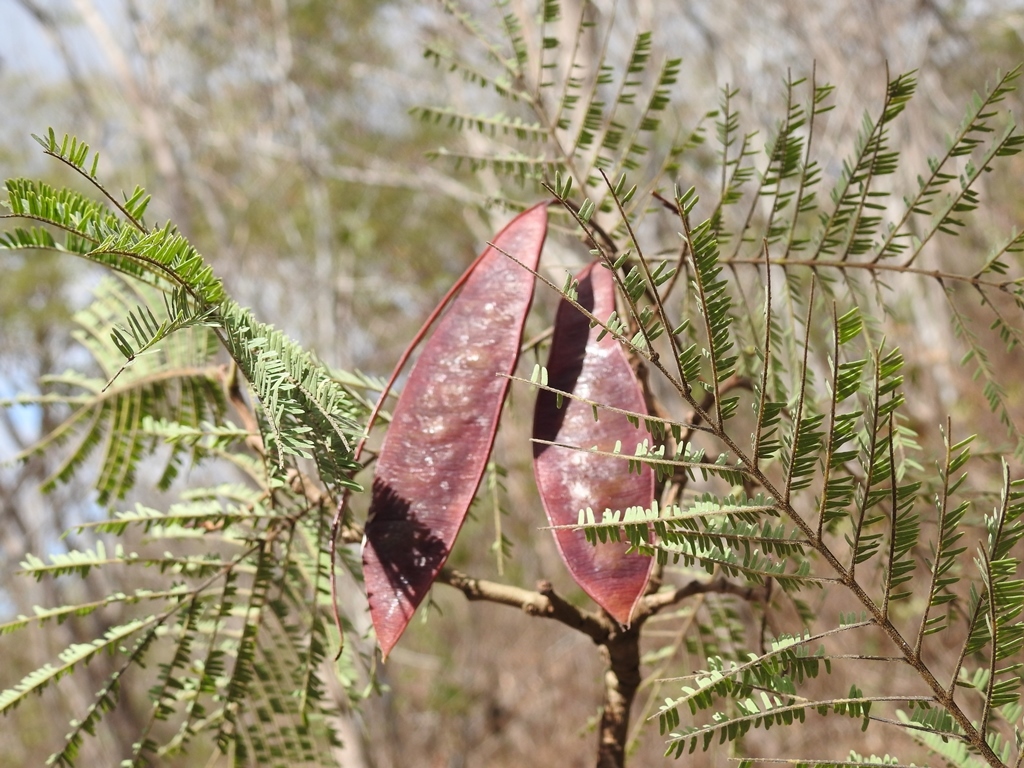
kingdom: Plantae
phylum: Tracheophyta
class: Magnoliopsida
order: Fabales
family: Fabaceae
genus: Lysiloma
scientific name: Lysiloma divaricatum
